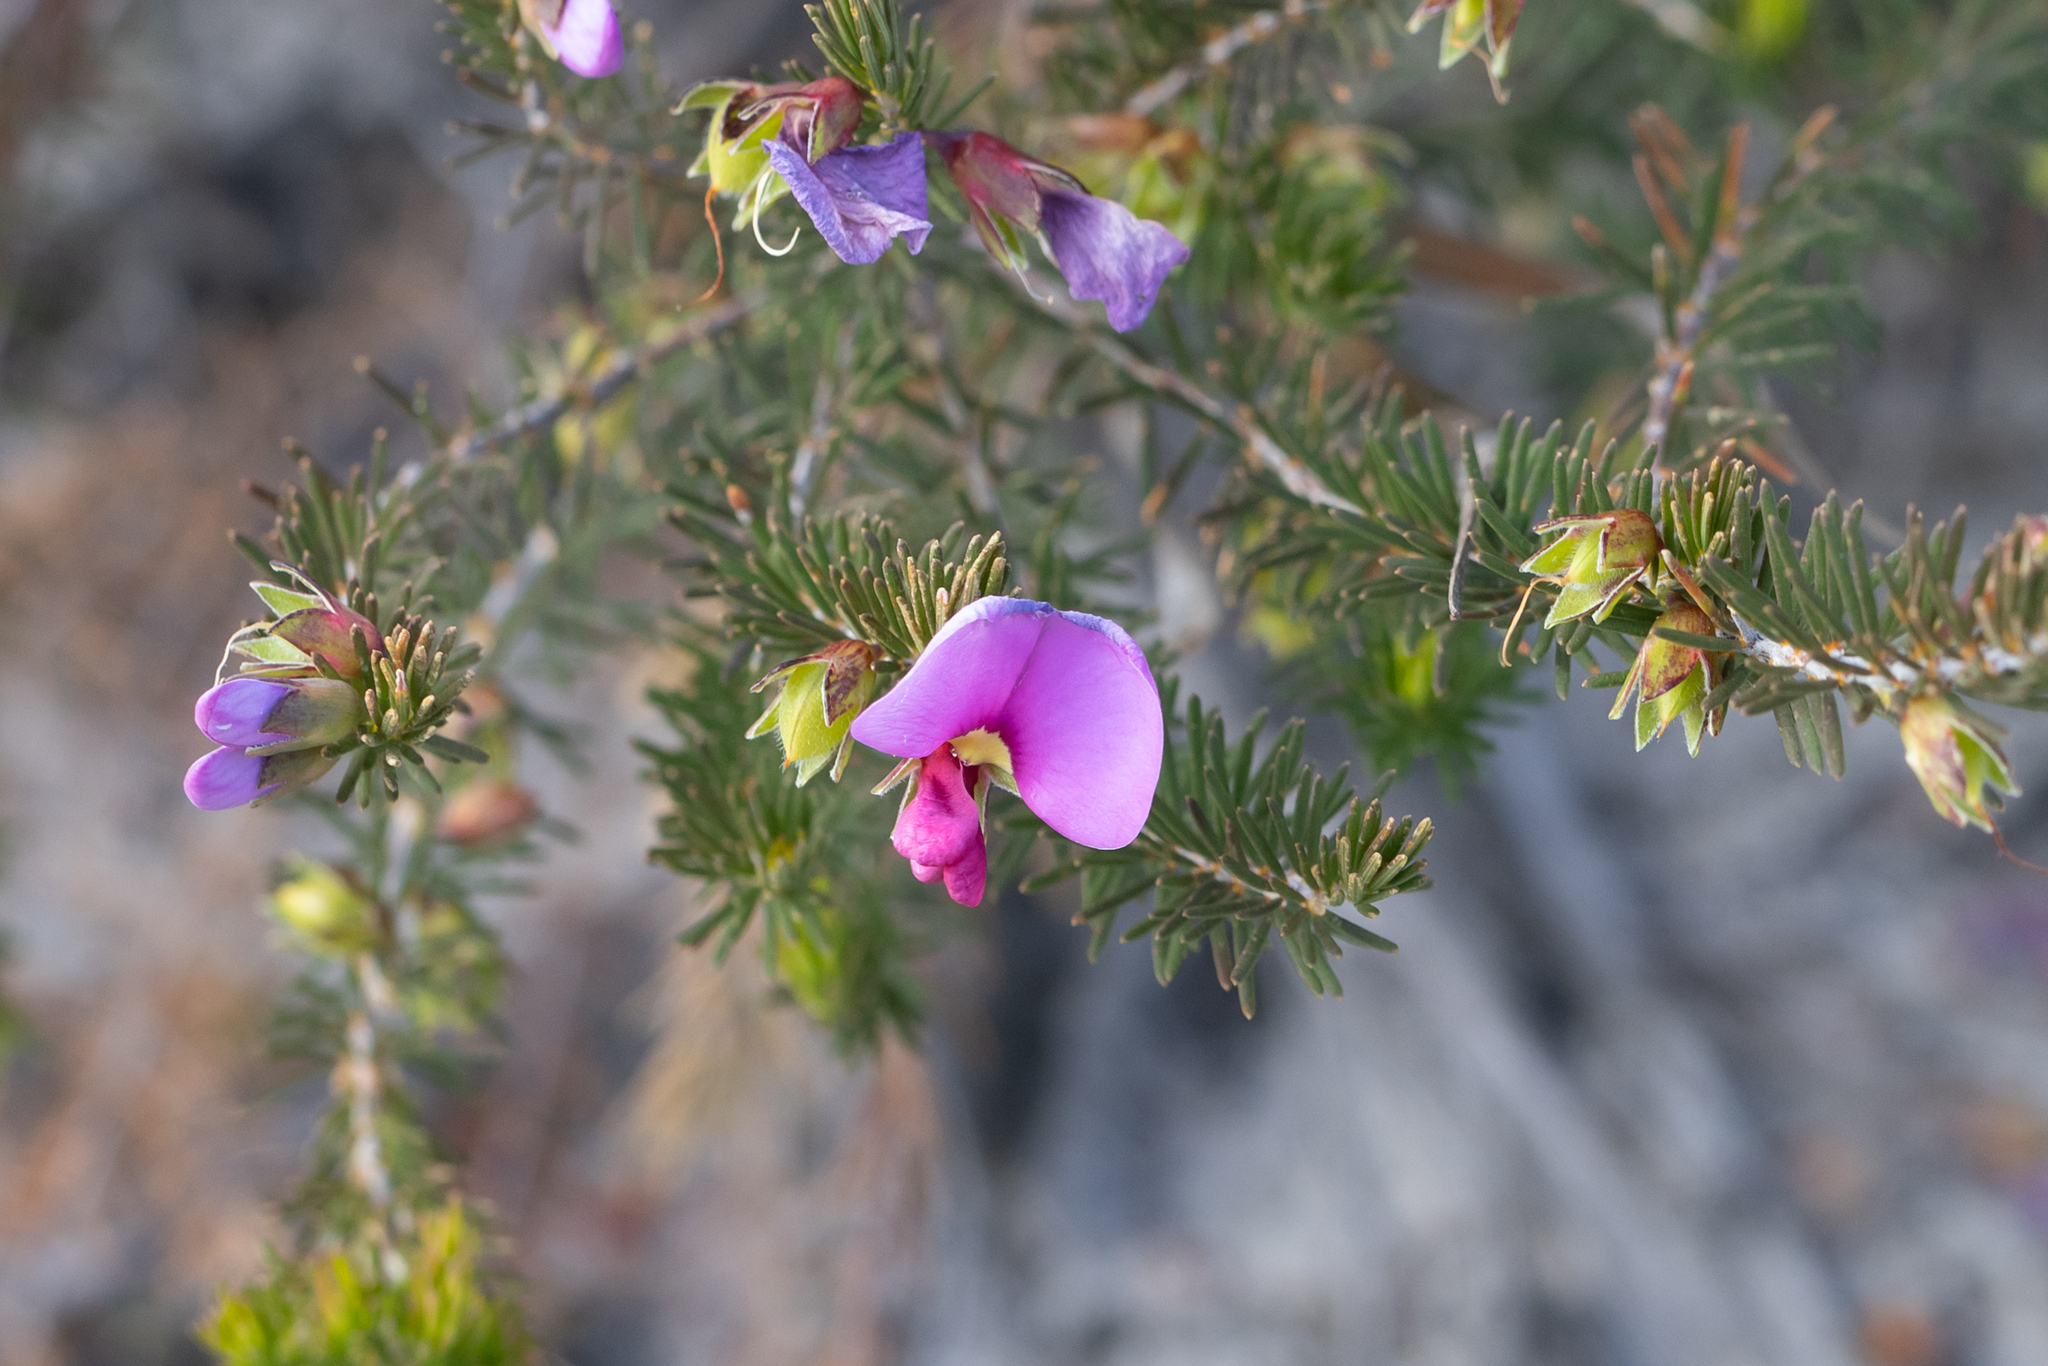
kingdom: Plantae
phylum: Tracheophyta
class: Magnoliopsida
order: Fabales
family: Fabaceae
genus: Gompholobium
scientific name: Gompholobium scabrum
